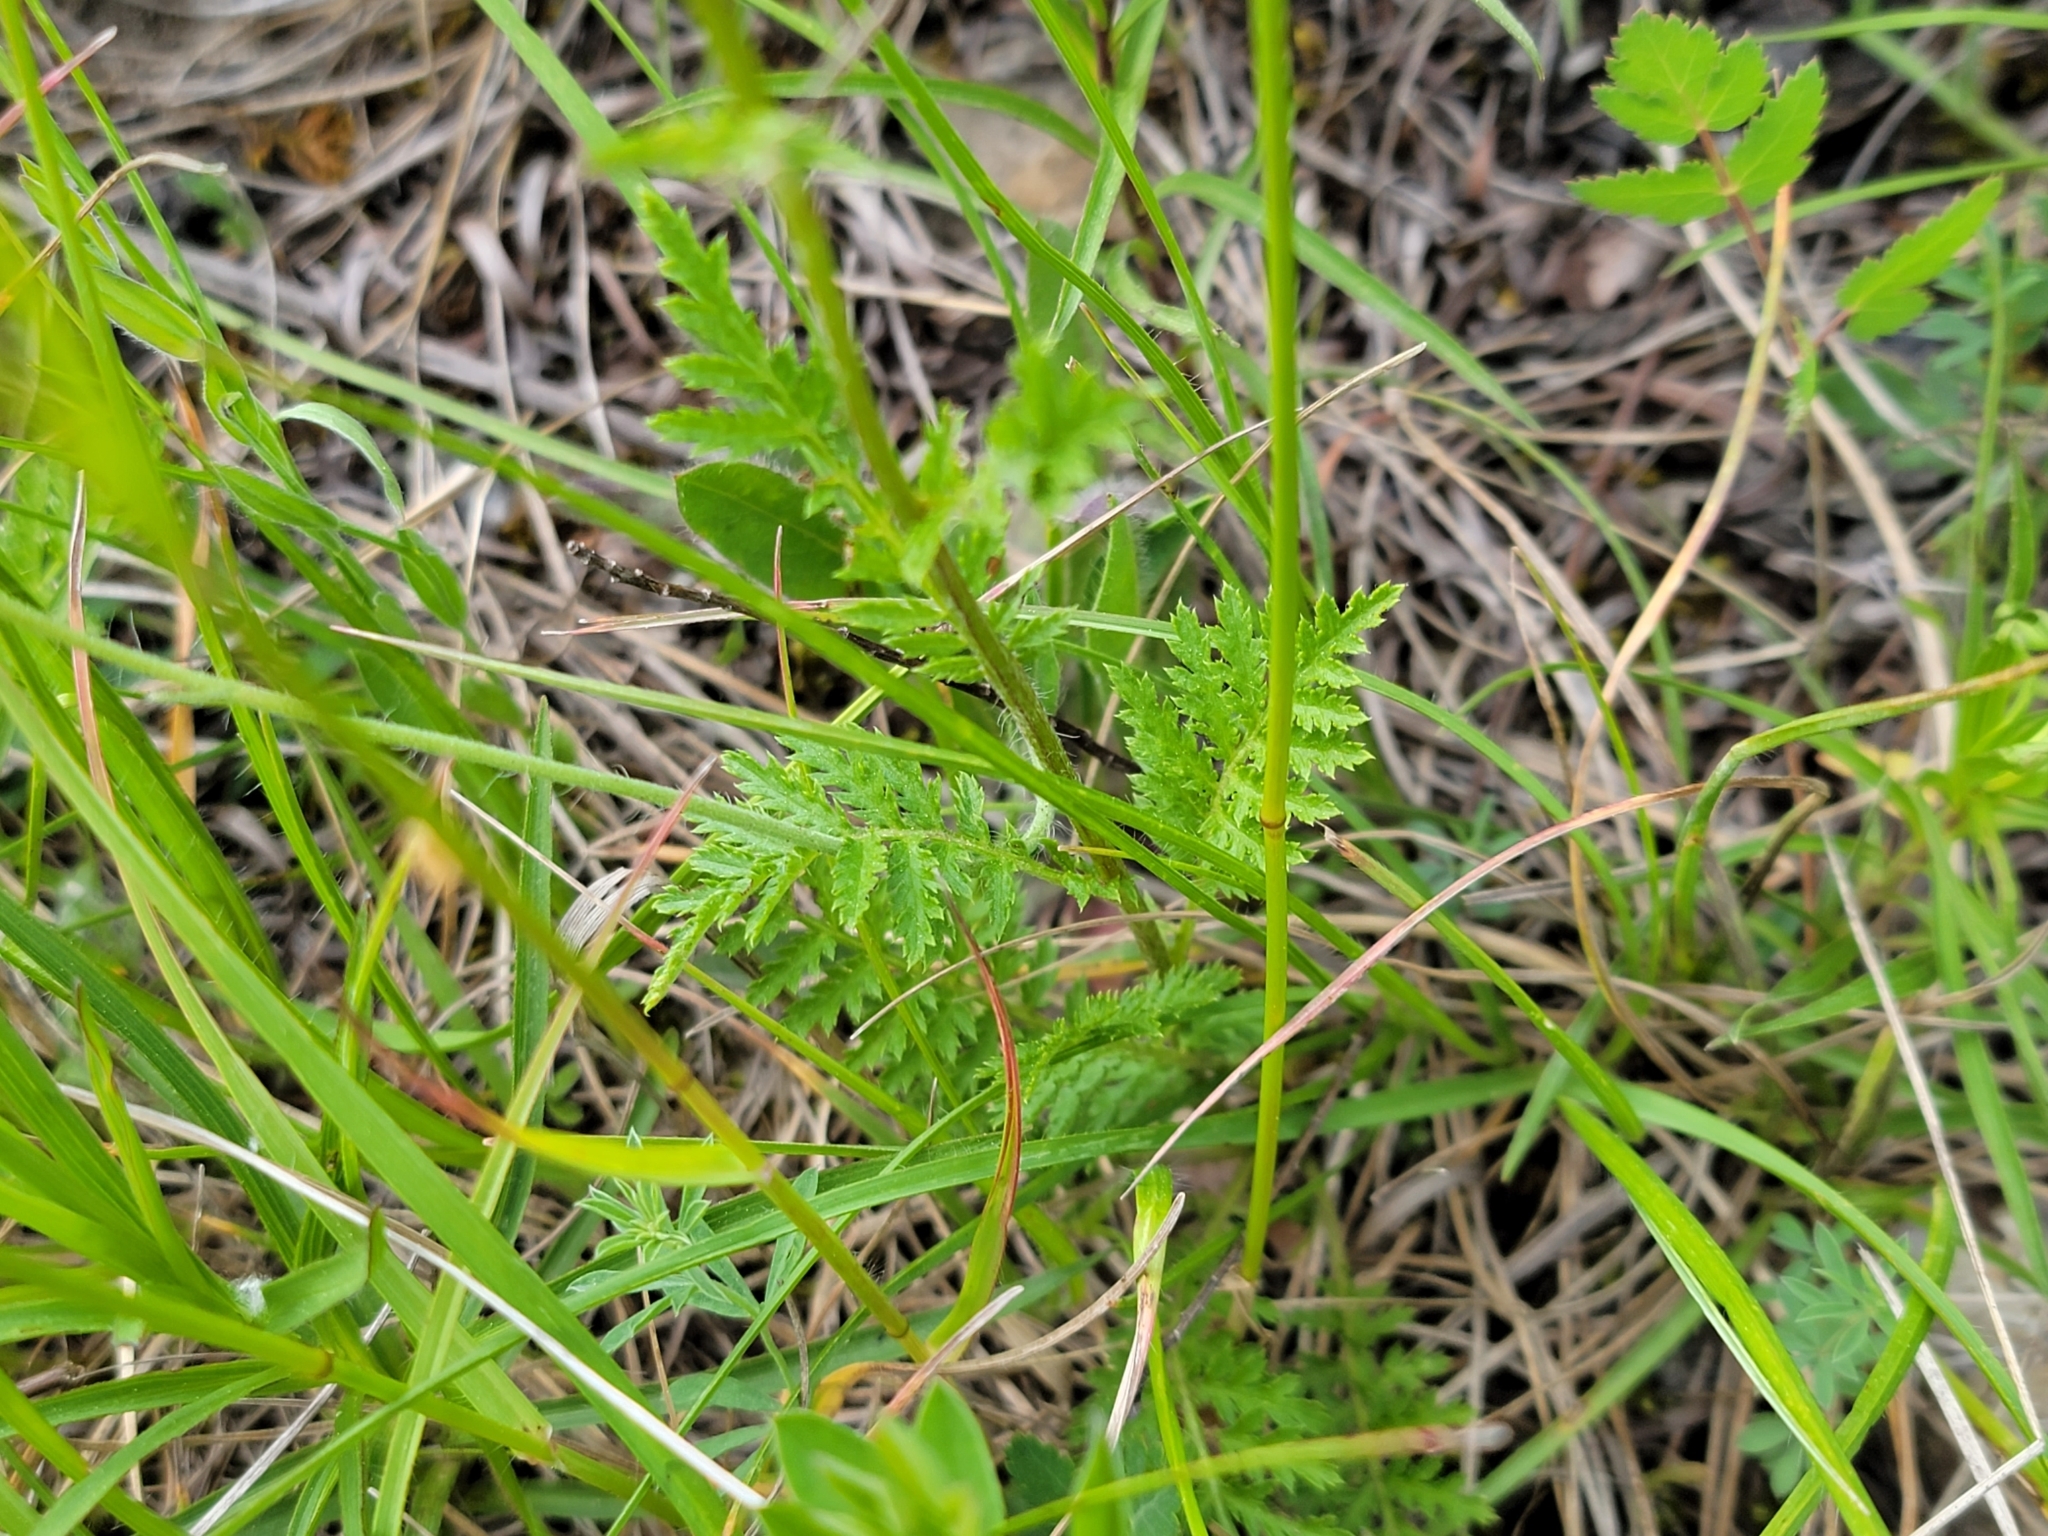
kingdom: Plantae
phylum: Tracheophyta
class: Magnoliopsida
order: Asterales
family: Asteraceae
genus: Tanacetum
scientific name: Tanacetum corymbosum
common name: Scentless feverfew
